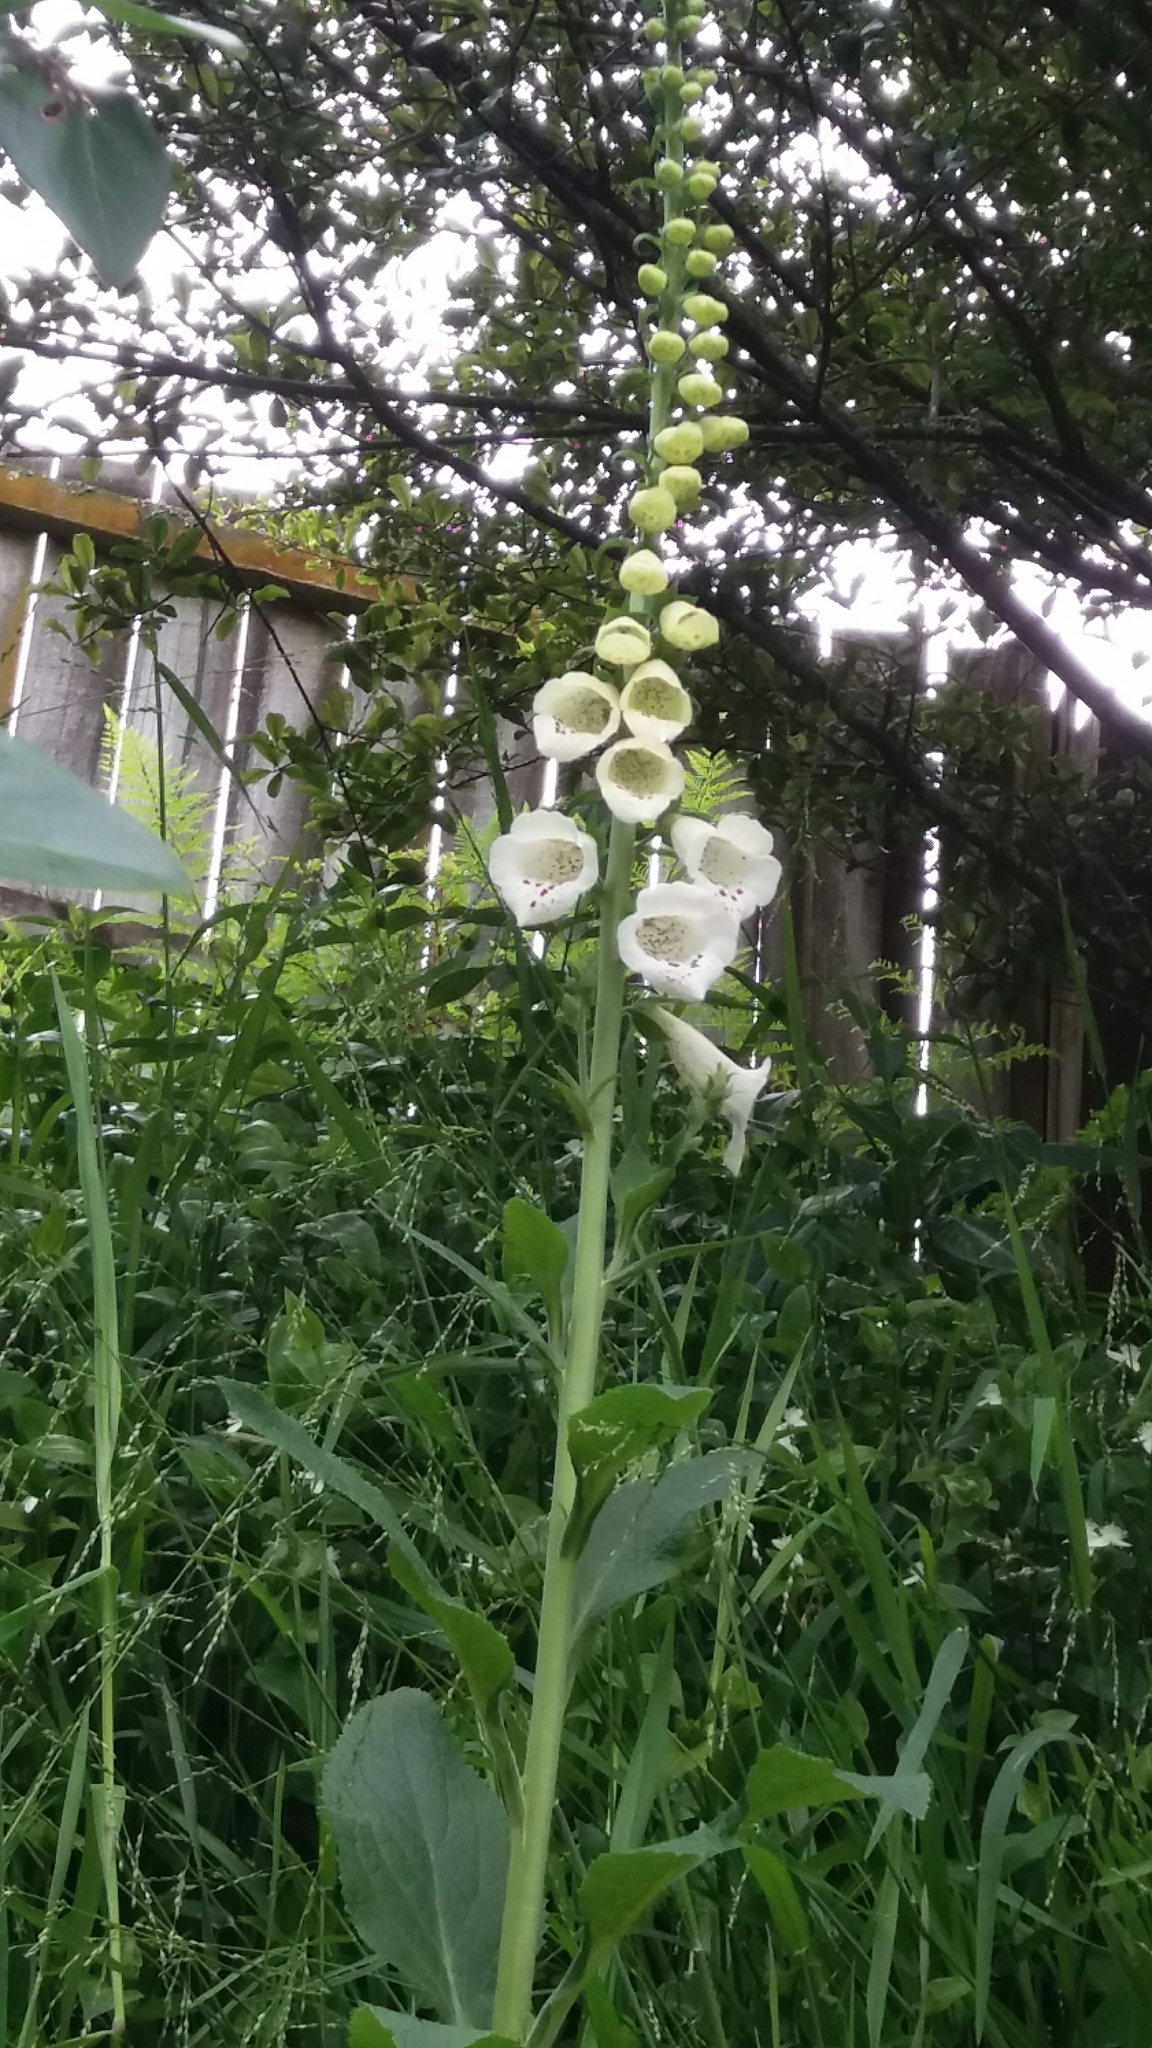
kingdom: Plantae
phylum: Tracheophyta
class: Magnoliopsida
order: Lamiales
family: Plantaginaceae
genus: Digitalis
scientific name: Digitalis purpurea
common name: Foxglove
